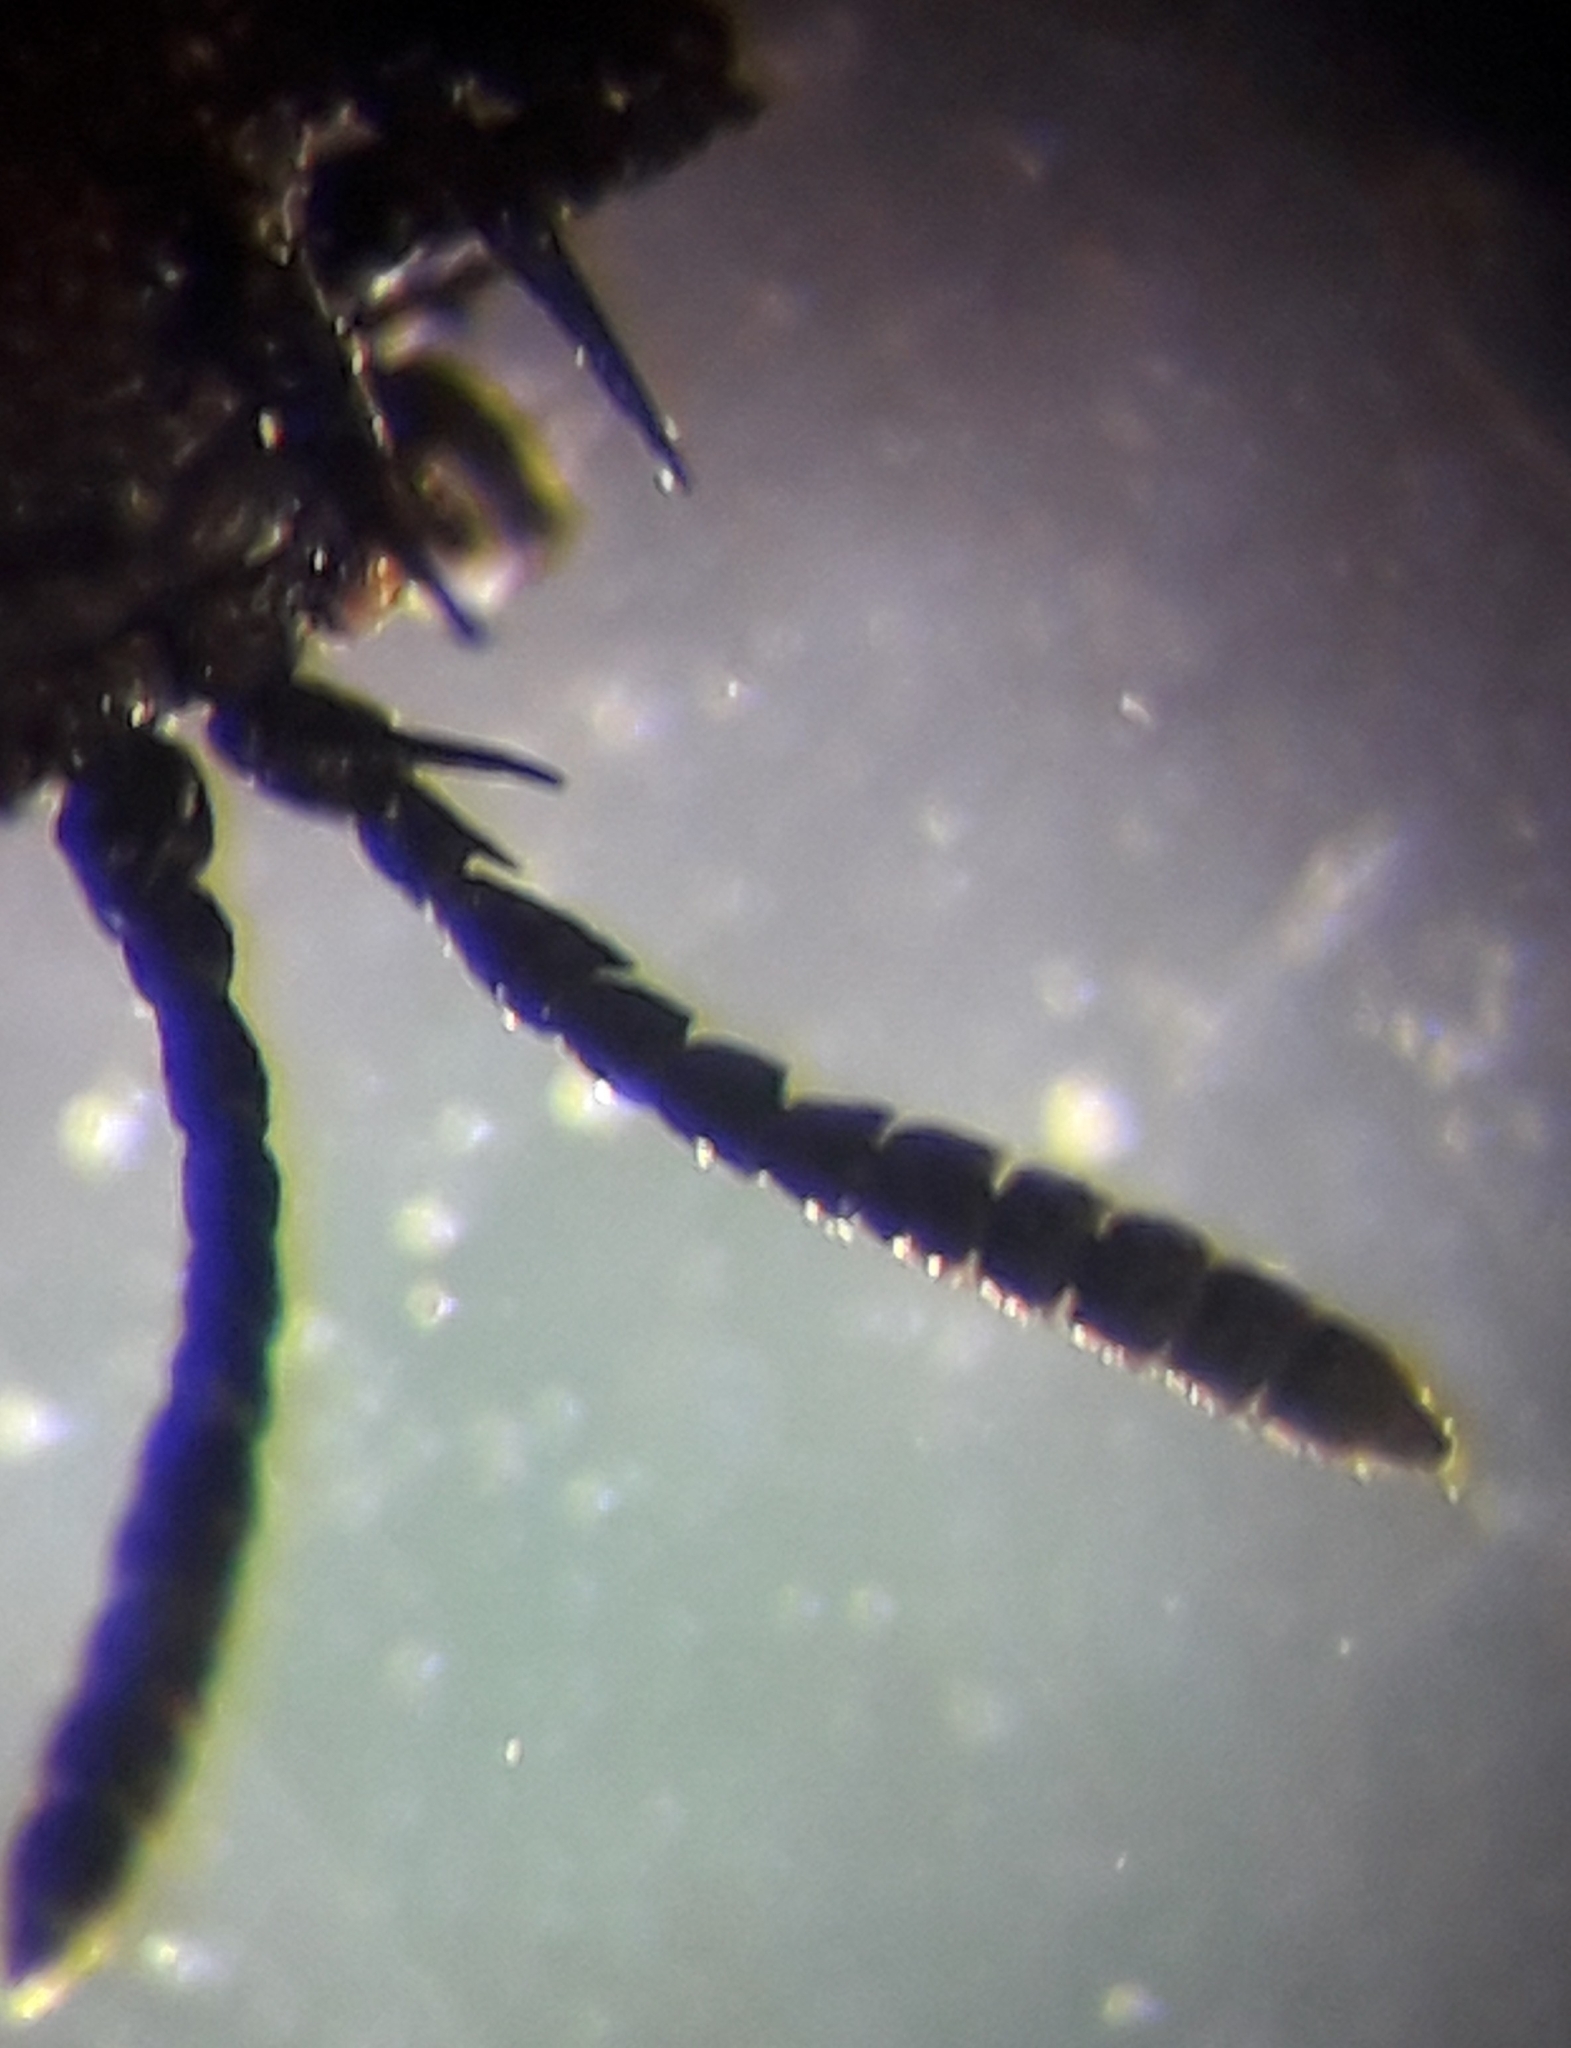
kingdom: Animalia
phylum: Arthropoda
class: Insecta
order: Coleoptera
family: Chrysomelidae
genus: Hispa
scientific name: Hispa atra
